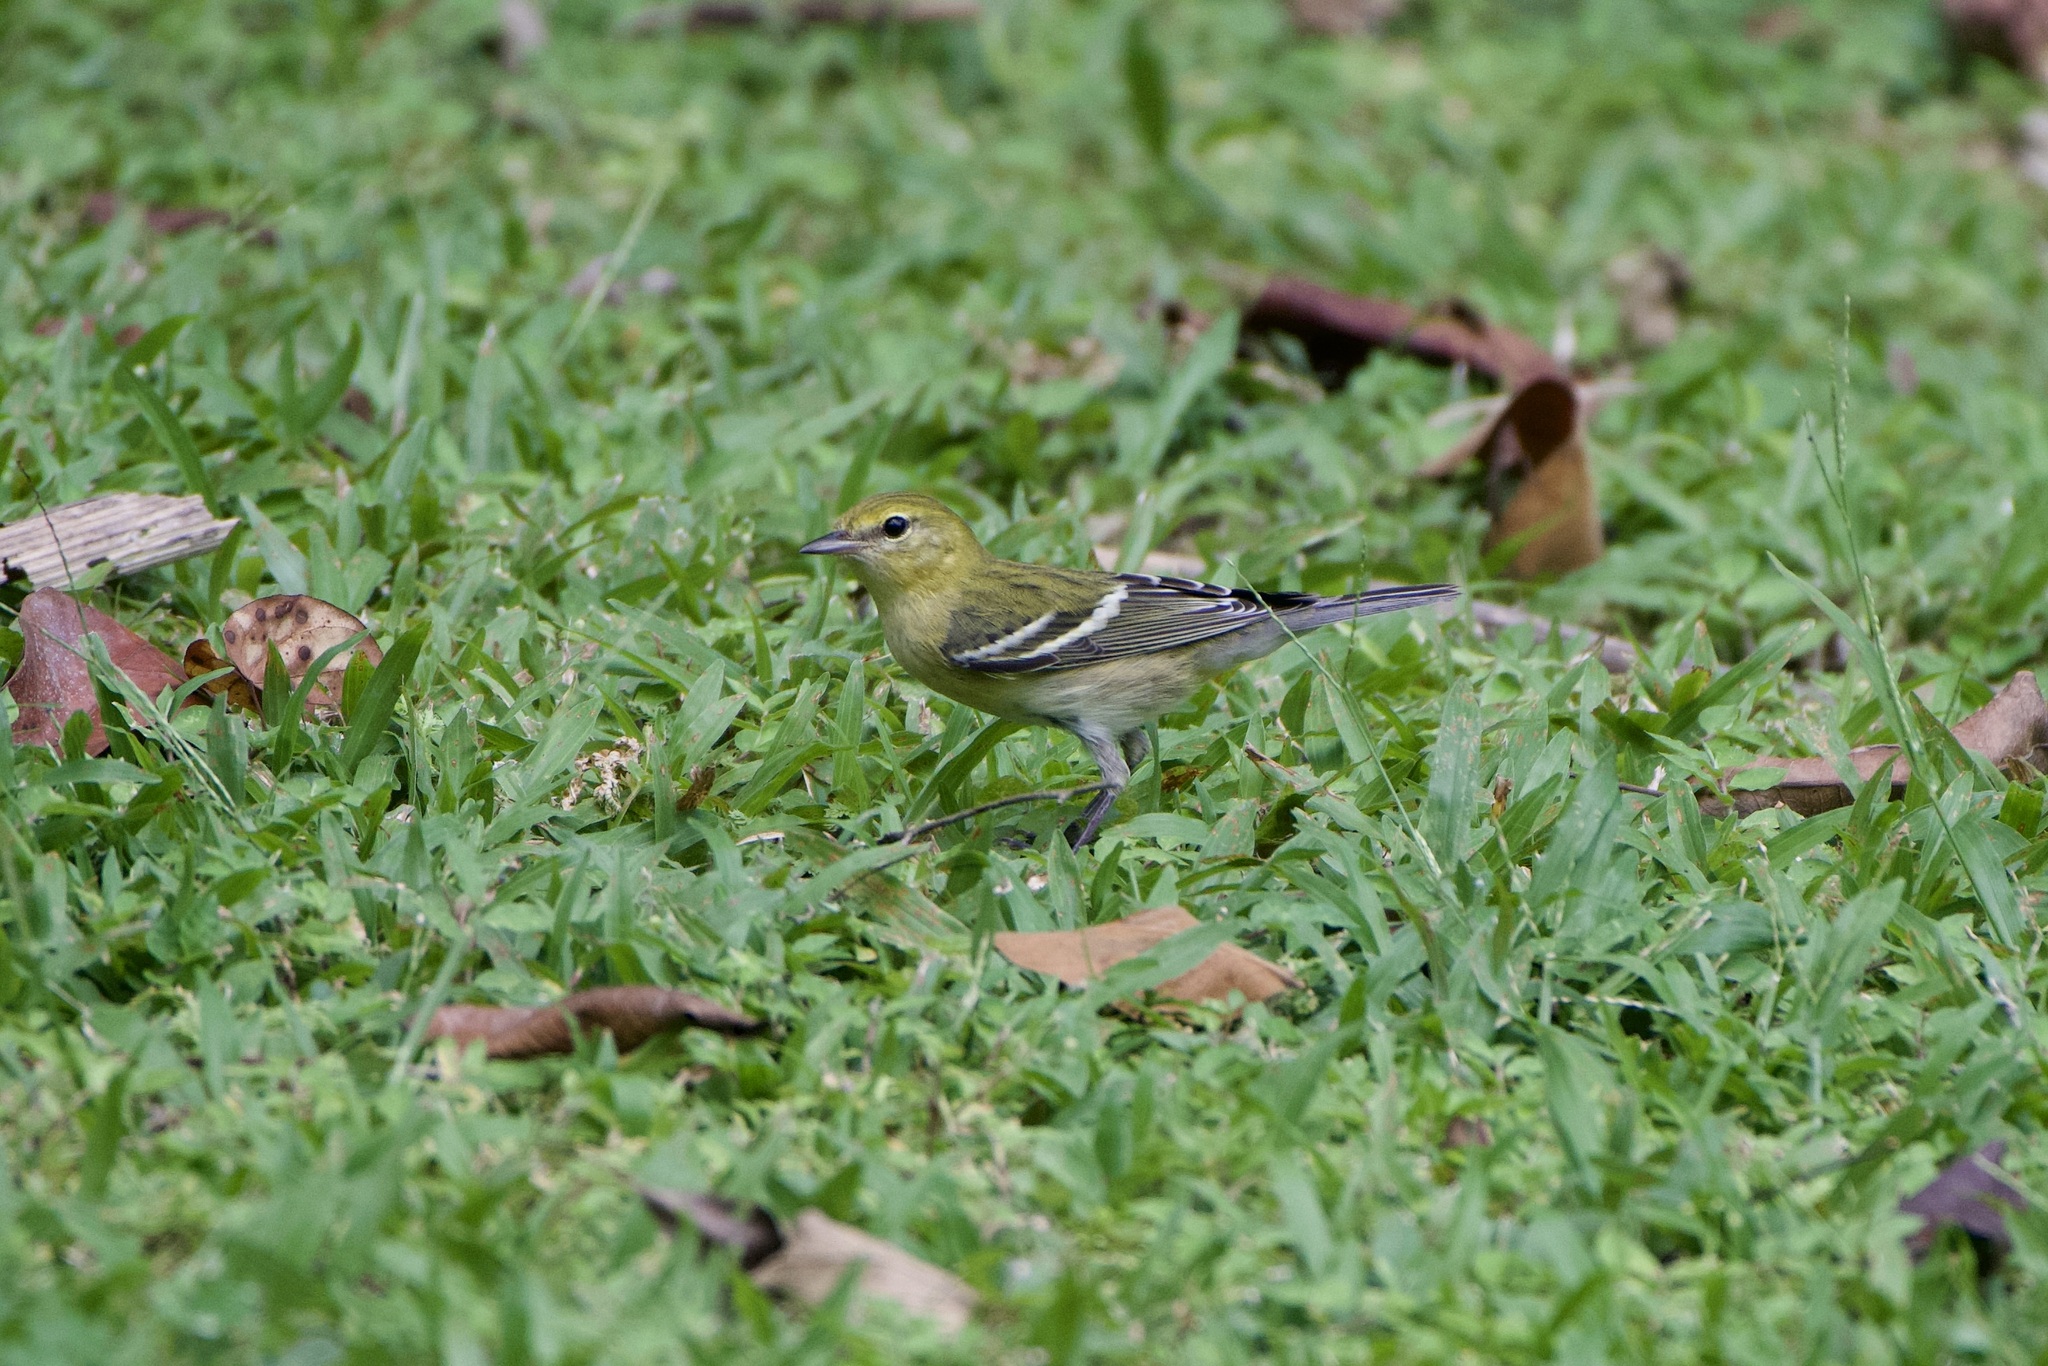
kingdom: Animalia
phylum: Chordata
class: Aves
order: Passeriformes
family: Parulidae
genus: Setophaga
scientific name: Setophaga castanea
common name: Bay-breasted warbler
